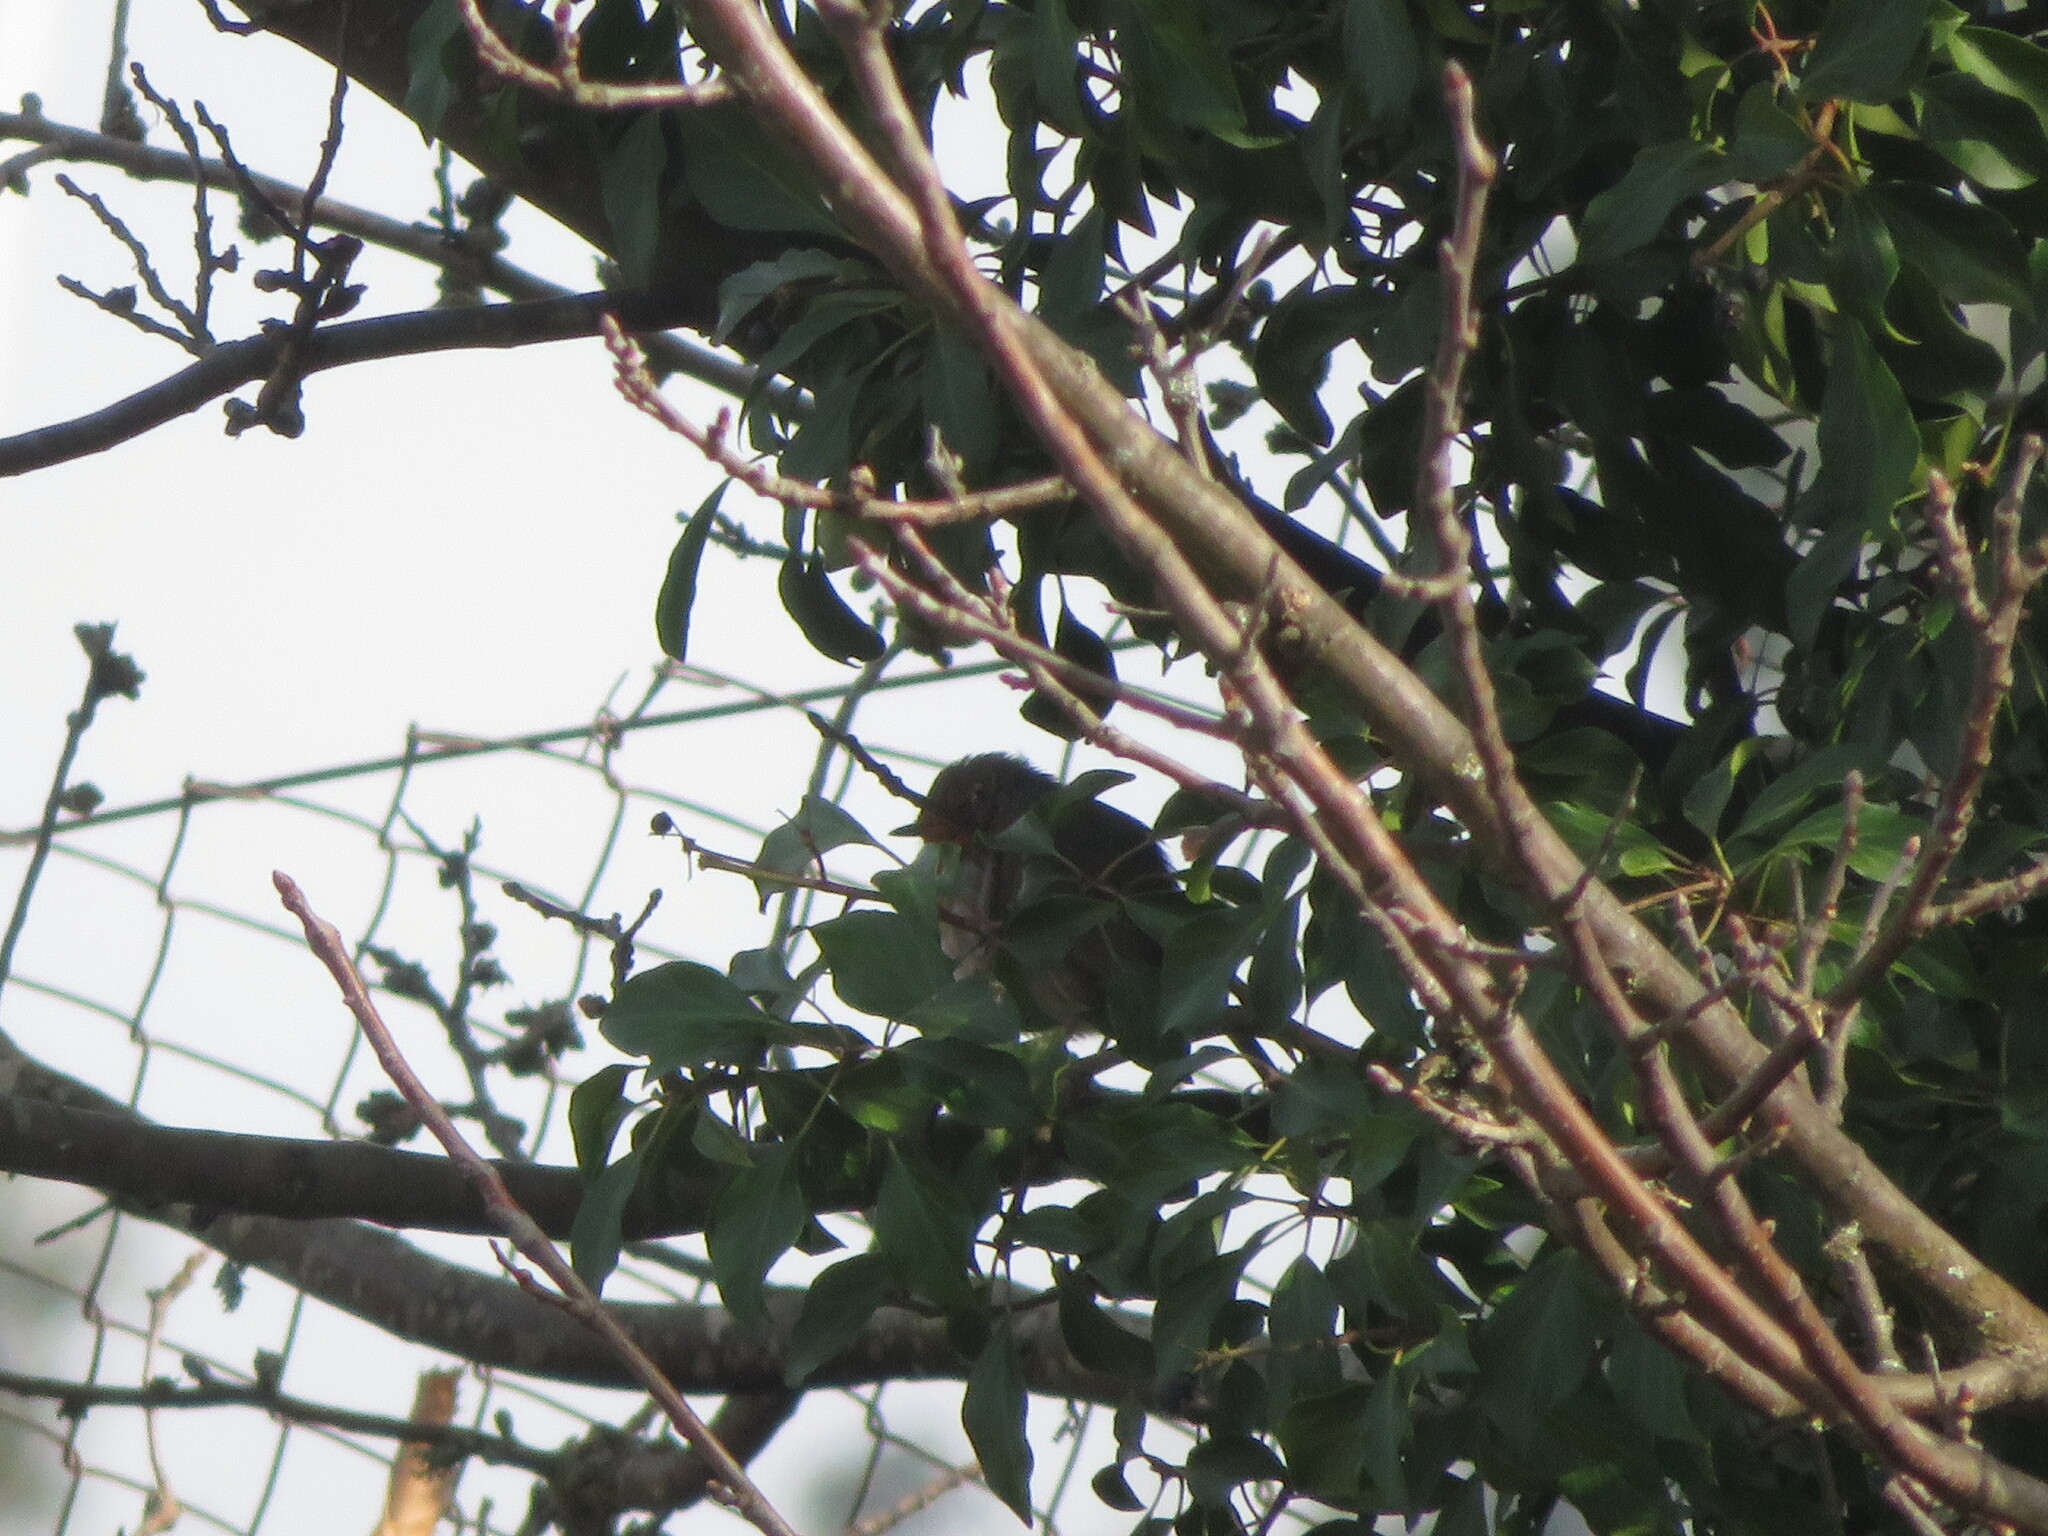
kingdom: Animalia
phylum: Chordata
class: Aves
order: Passeriformes
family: Muscicapidae
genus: Erithacus
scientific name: Erithacus rubecula
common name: European robin
